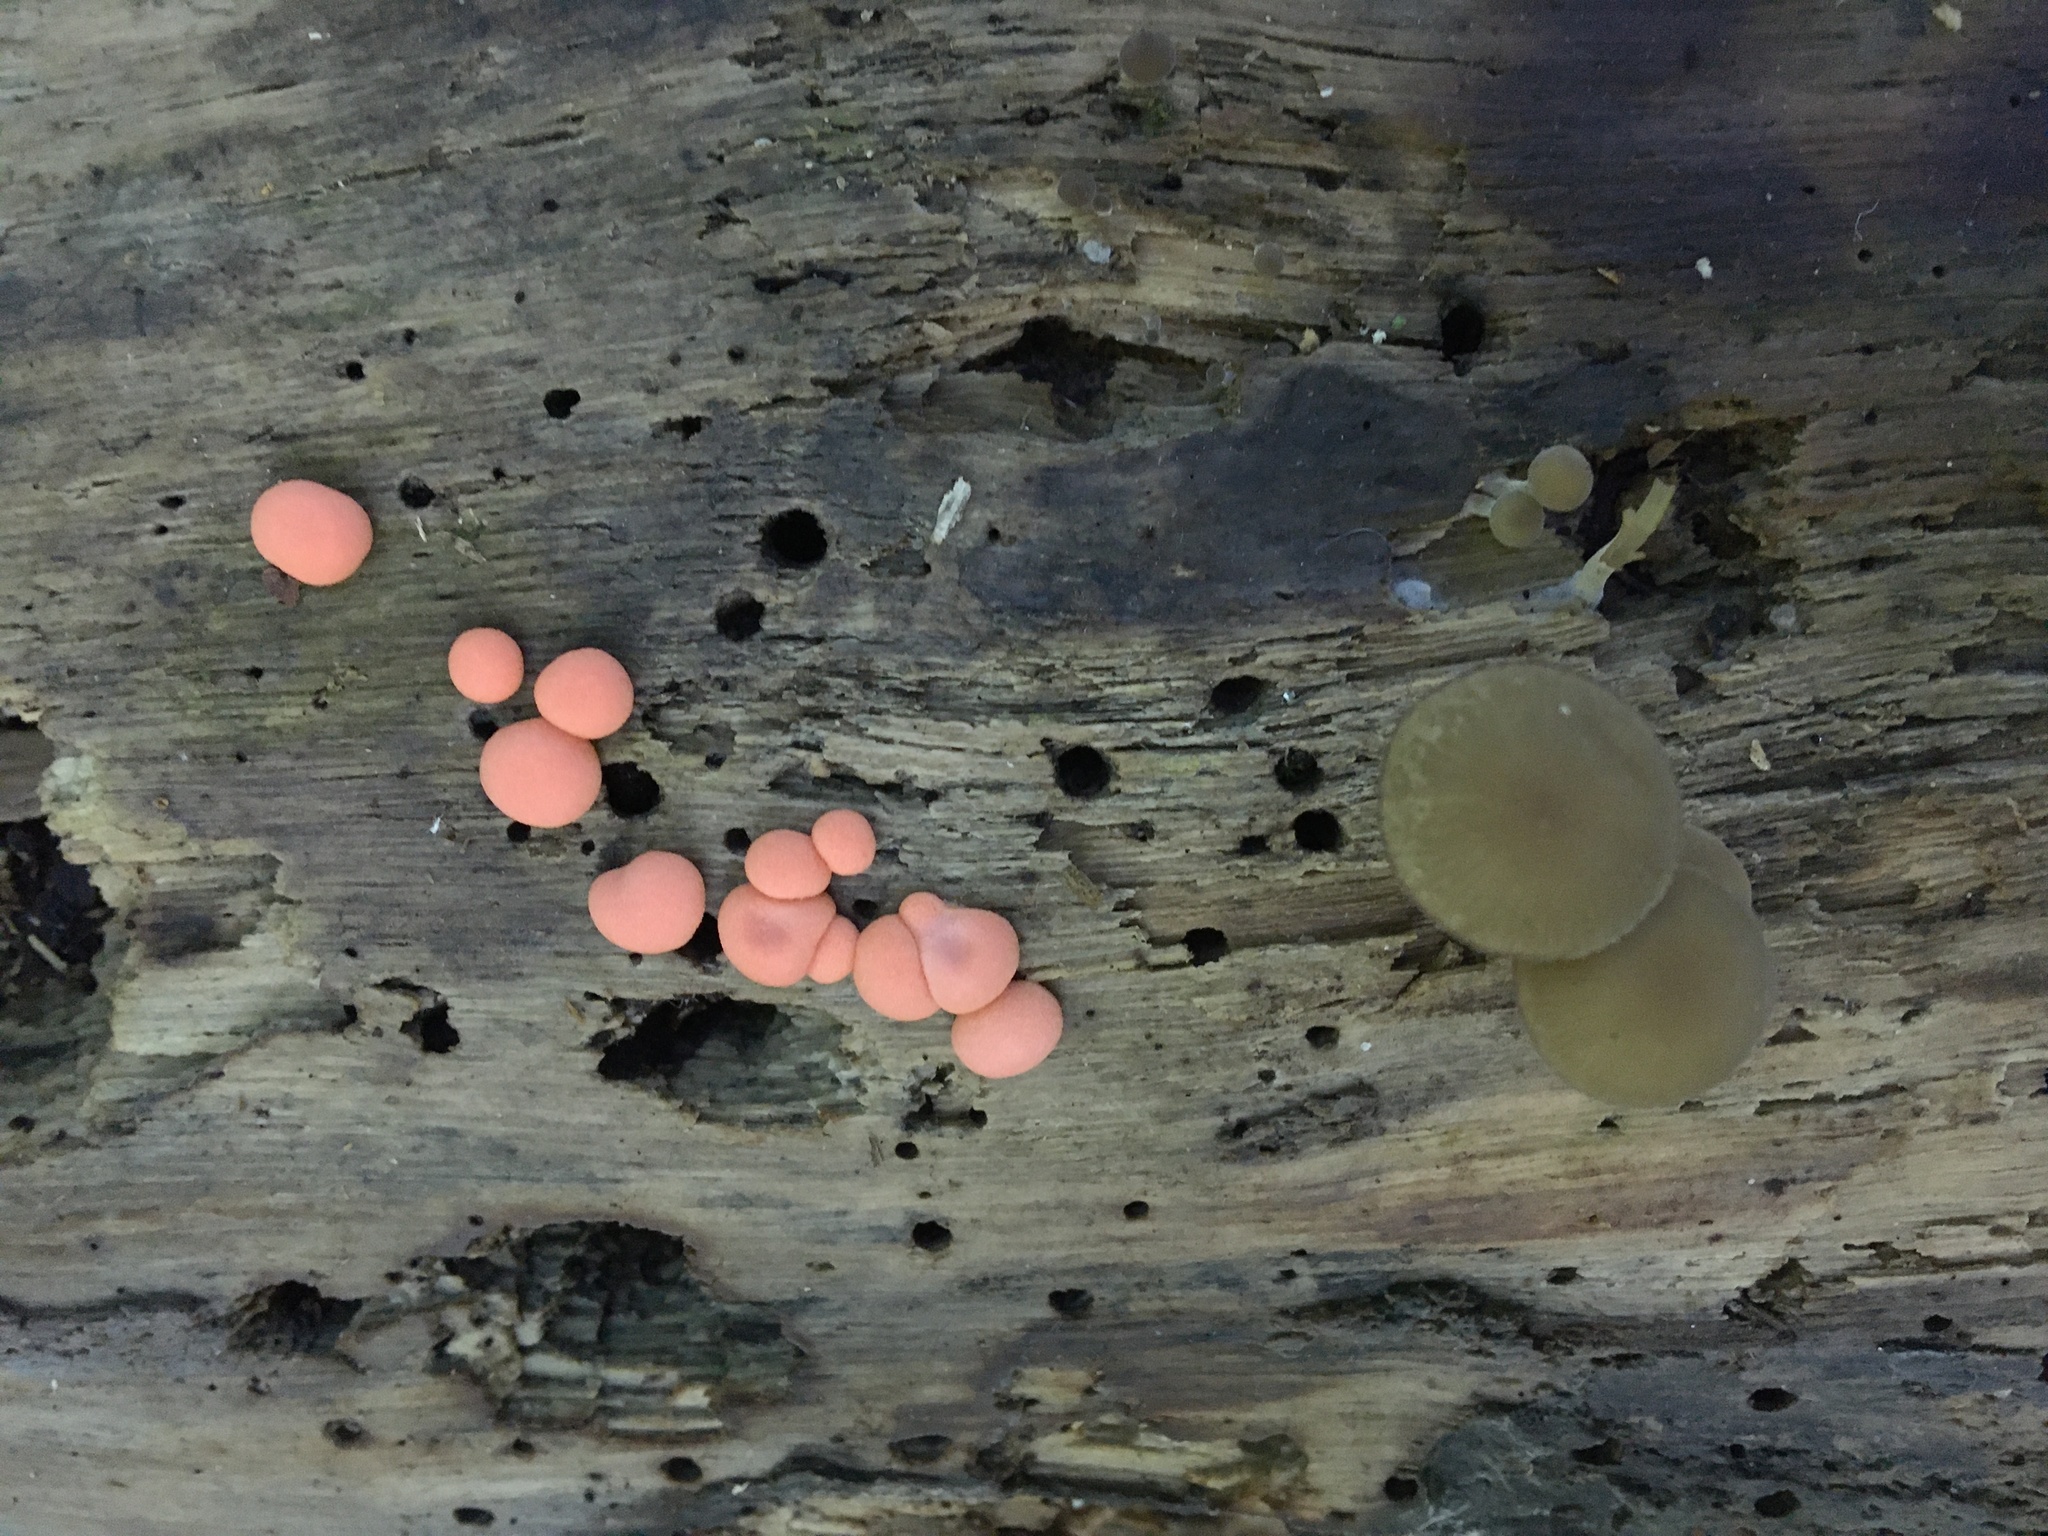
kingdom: Protozoa
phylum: Mycetozoa
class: Myxomycetes
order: Cribrariales
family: Tubiferaceae
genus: Lycogala
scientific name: Lycogala epidendrum
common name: Wolf's milk
